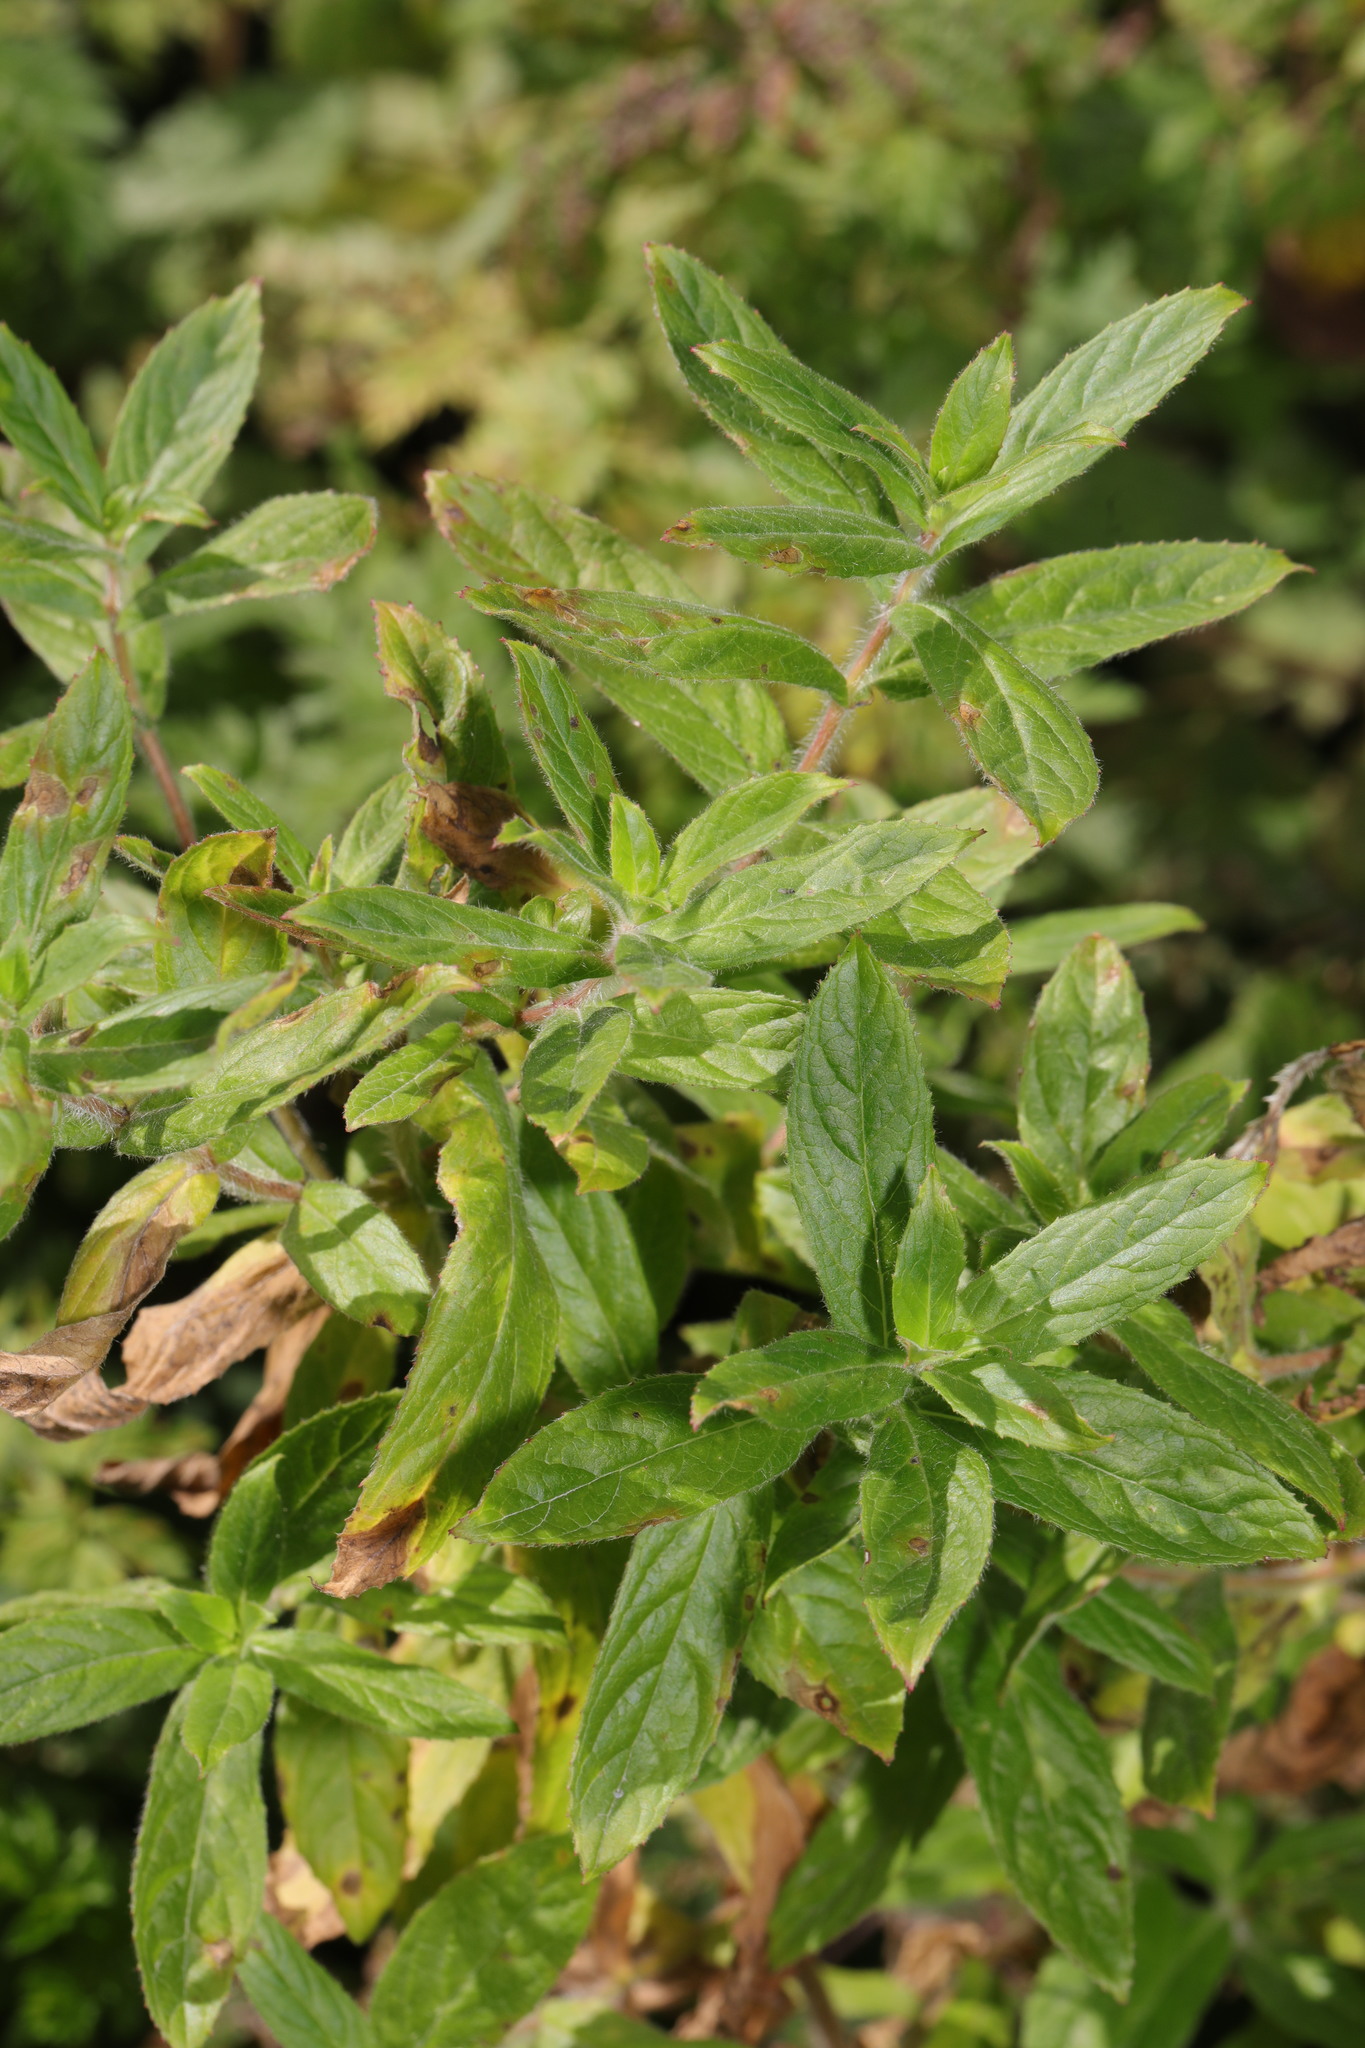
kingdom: Plantae
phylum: Tracheophyta
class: Magnoliopsida
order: Myrtales
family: Onagraceae
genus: Epilobium
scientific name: Epilobium hirsutum
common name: Great willowherb
